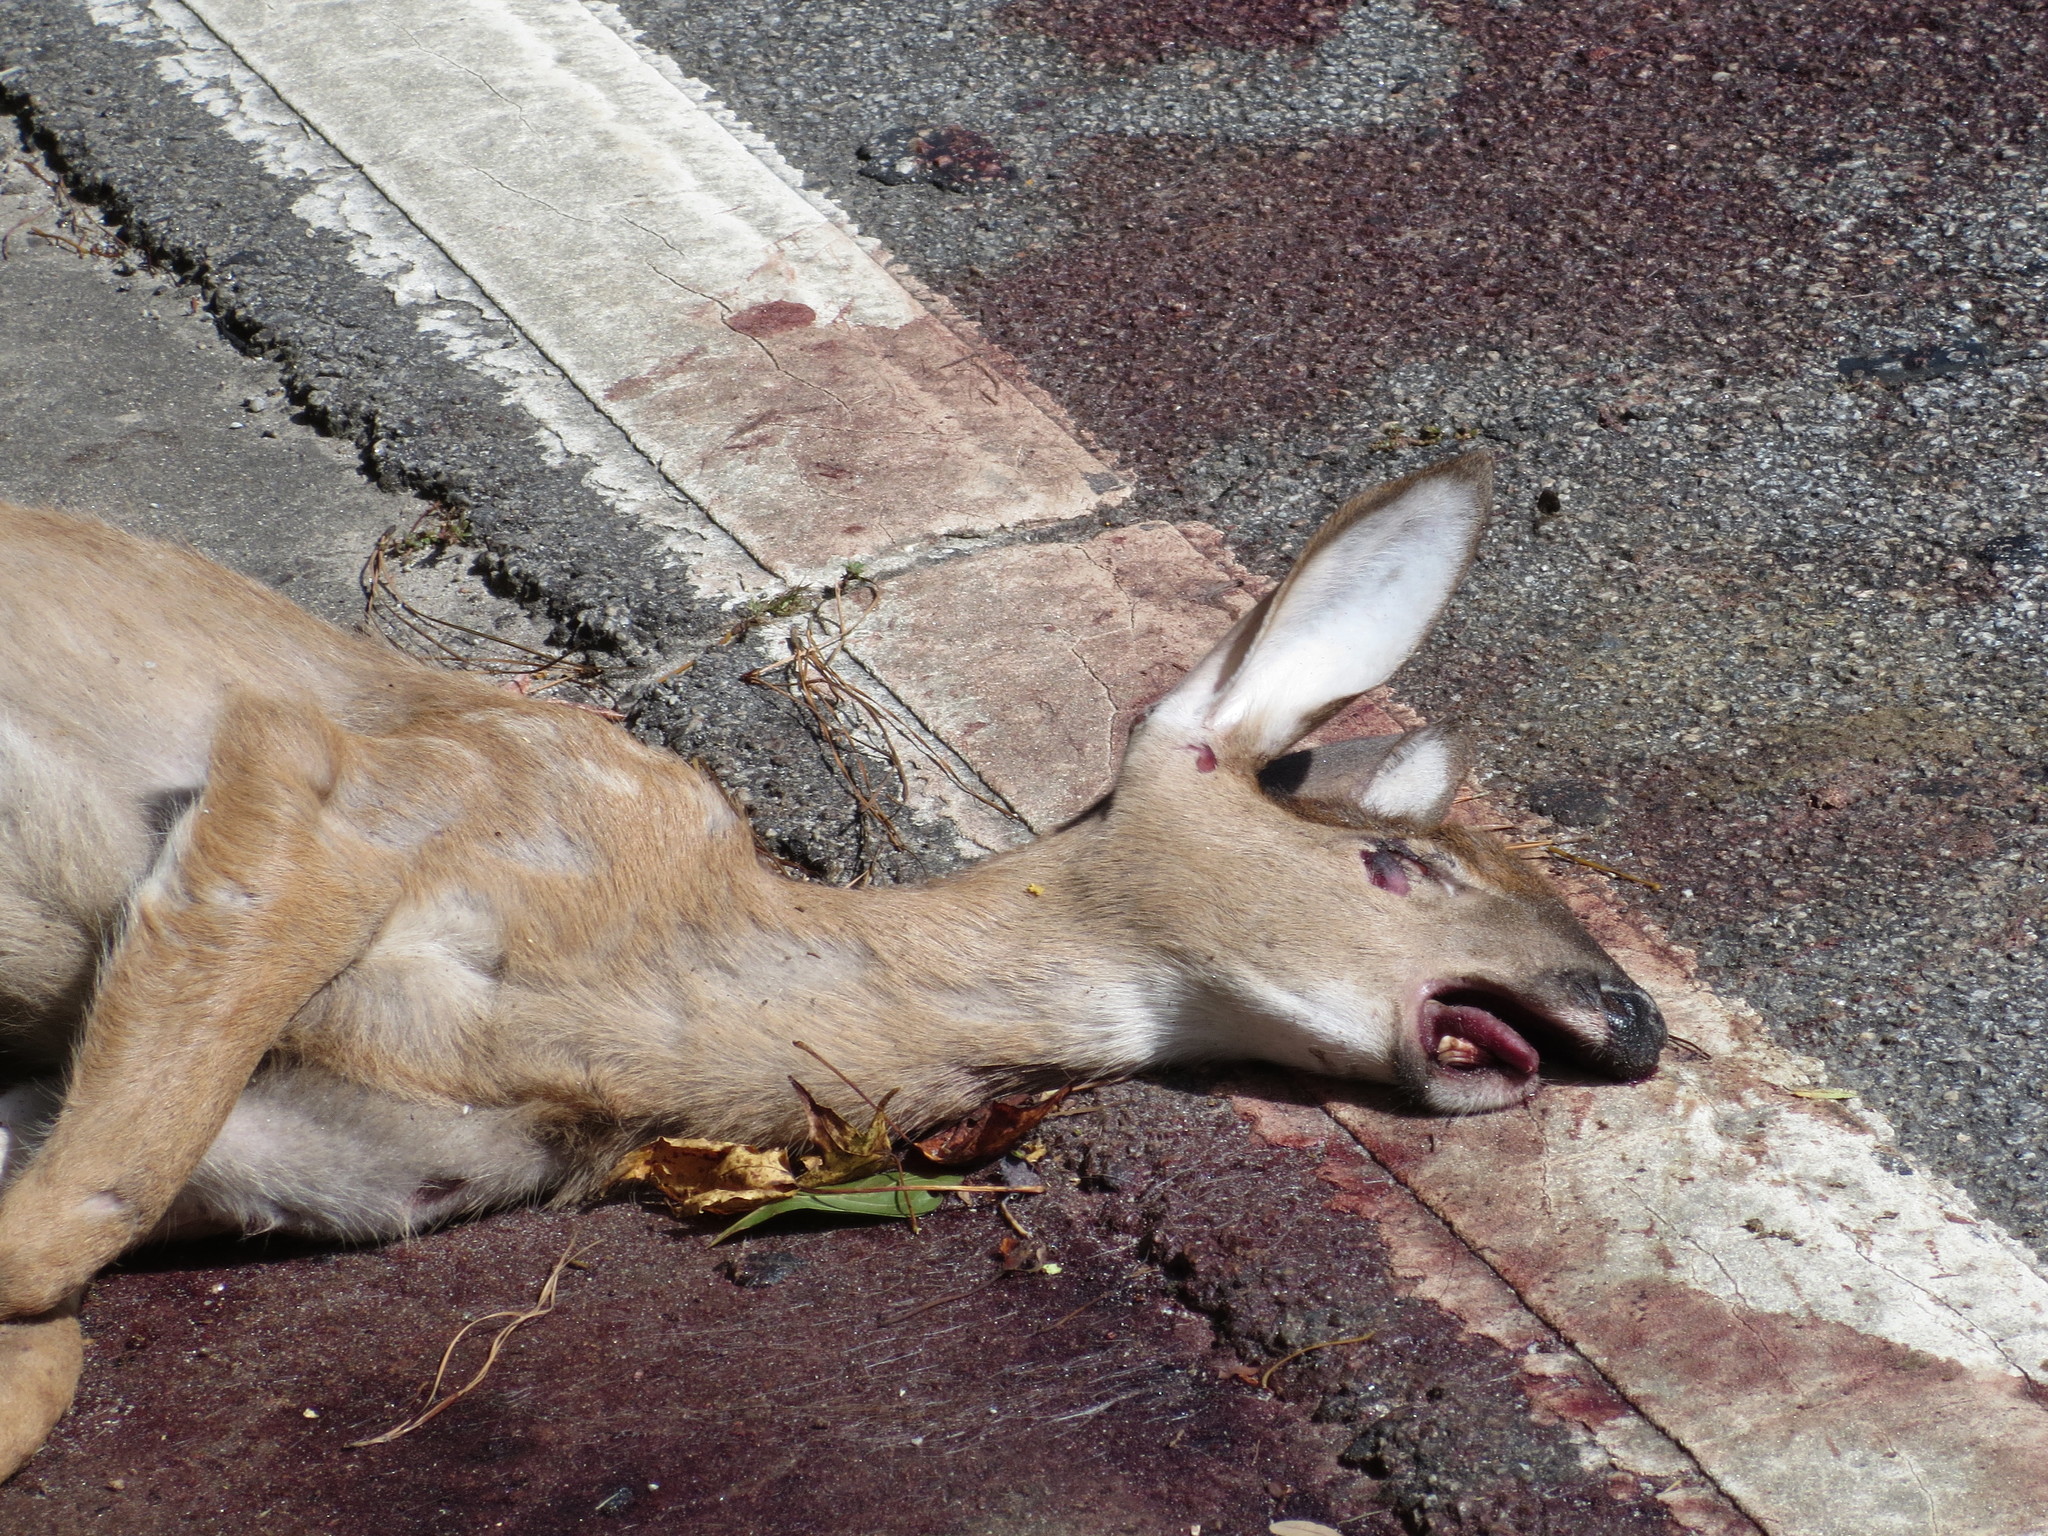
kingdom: Animalia
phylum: Chordata
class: Mammalia
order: Artiodactyla
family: Cervidae
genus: Odocoileus
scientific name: Odocoileus virginianus
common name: White-tailed deer
